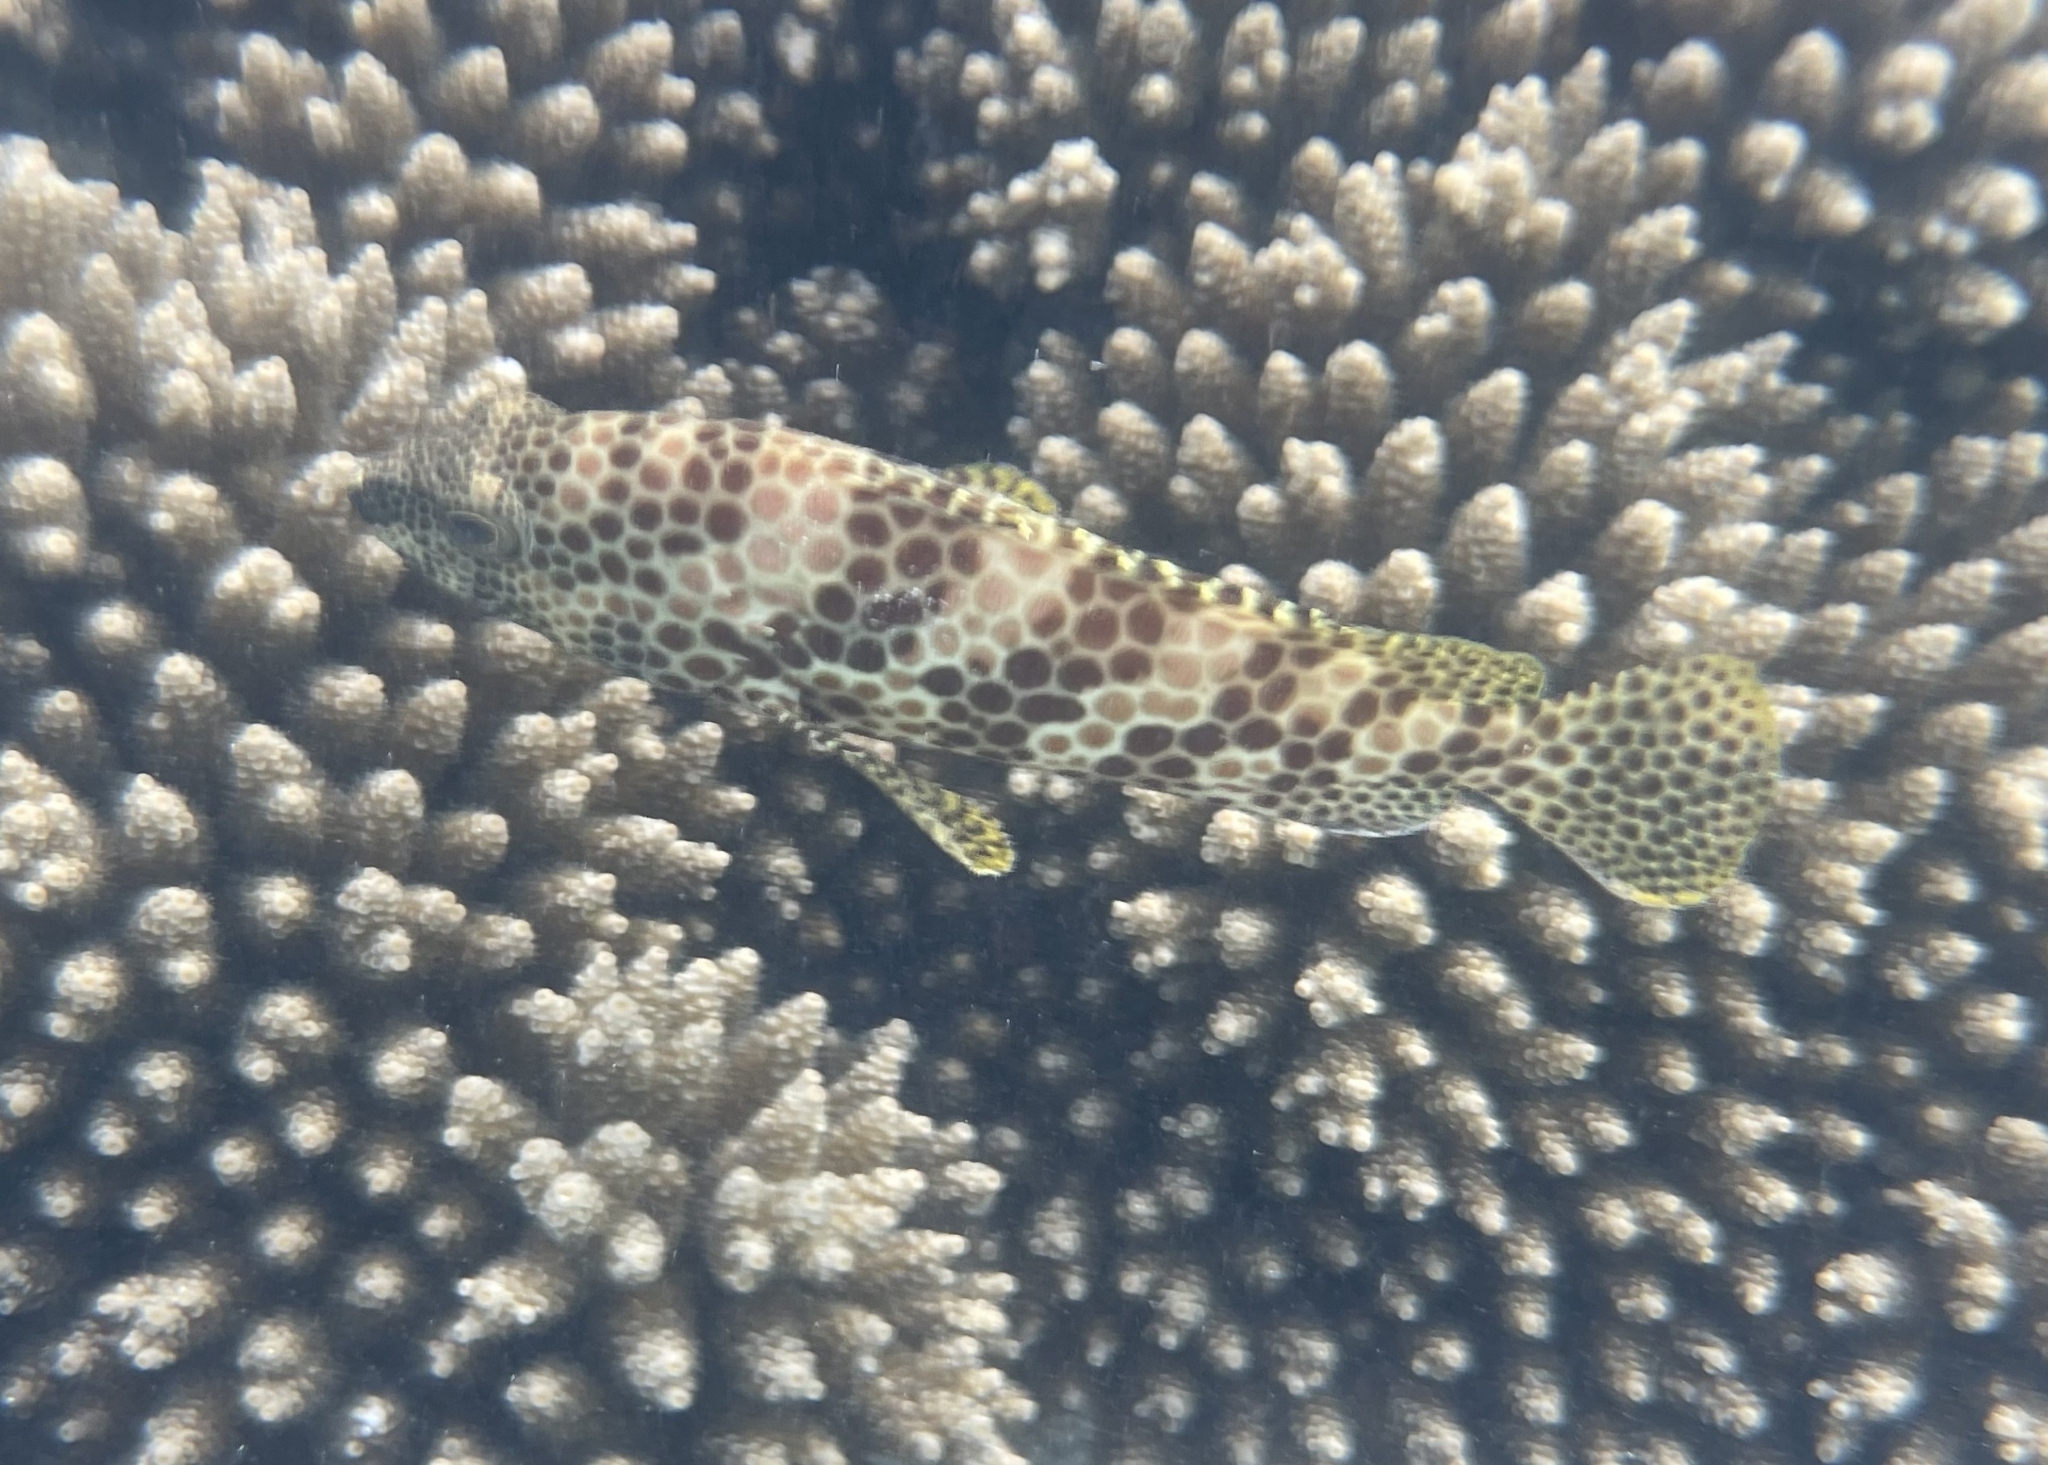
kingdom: Animalia
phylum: Chordata
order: Perciformes
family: Serranidae
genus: Epinephelus
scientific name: Epinephelus merra
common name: Honeycomb grouper
